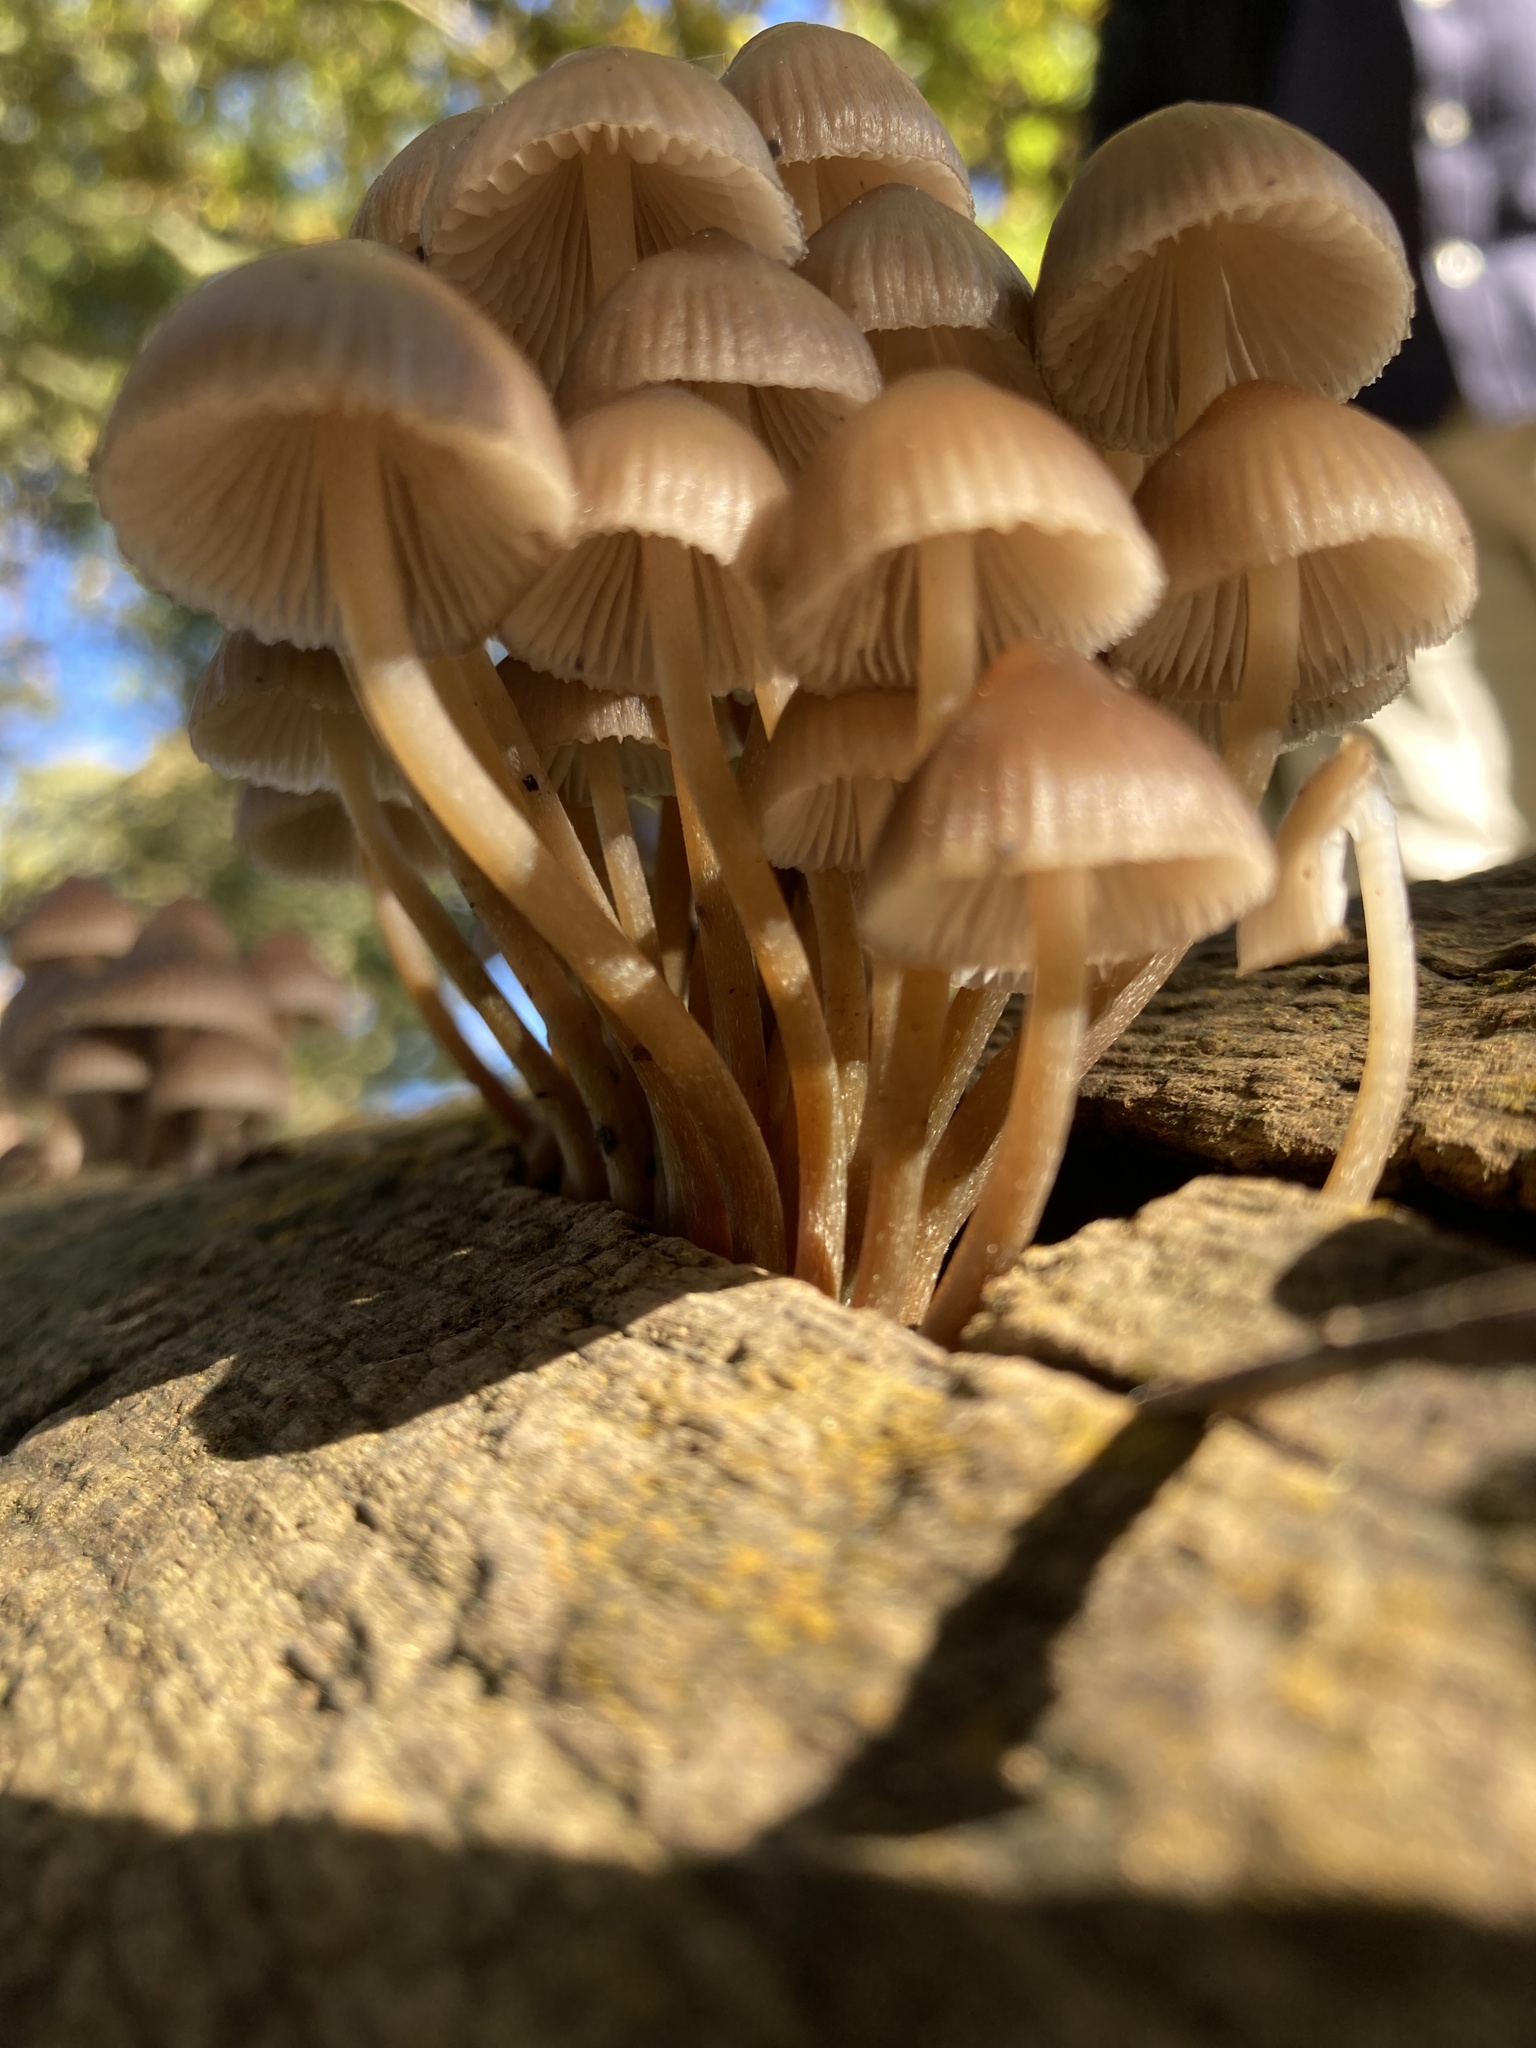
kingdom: Fungi
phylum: Basidiomycota
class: Agaricomycetes
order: Agaricales
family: Mycenaceae
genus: Mycena
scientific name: Mycena inclinata
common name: Clustered bonnet
